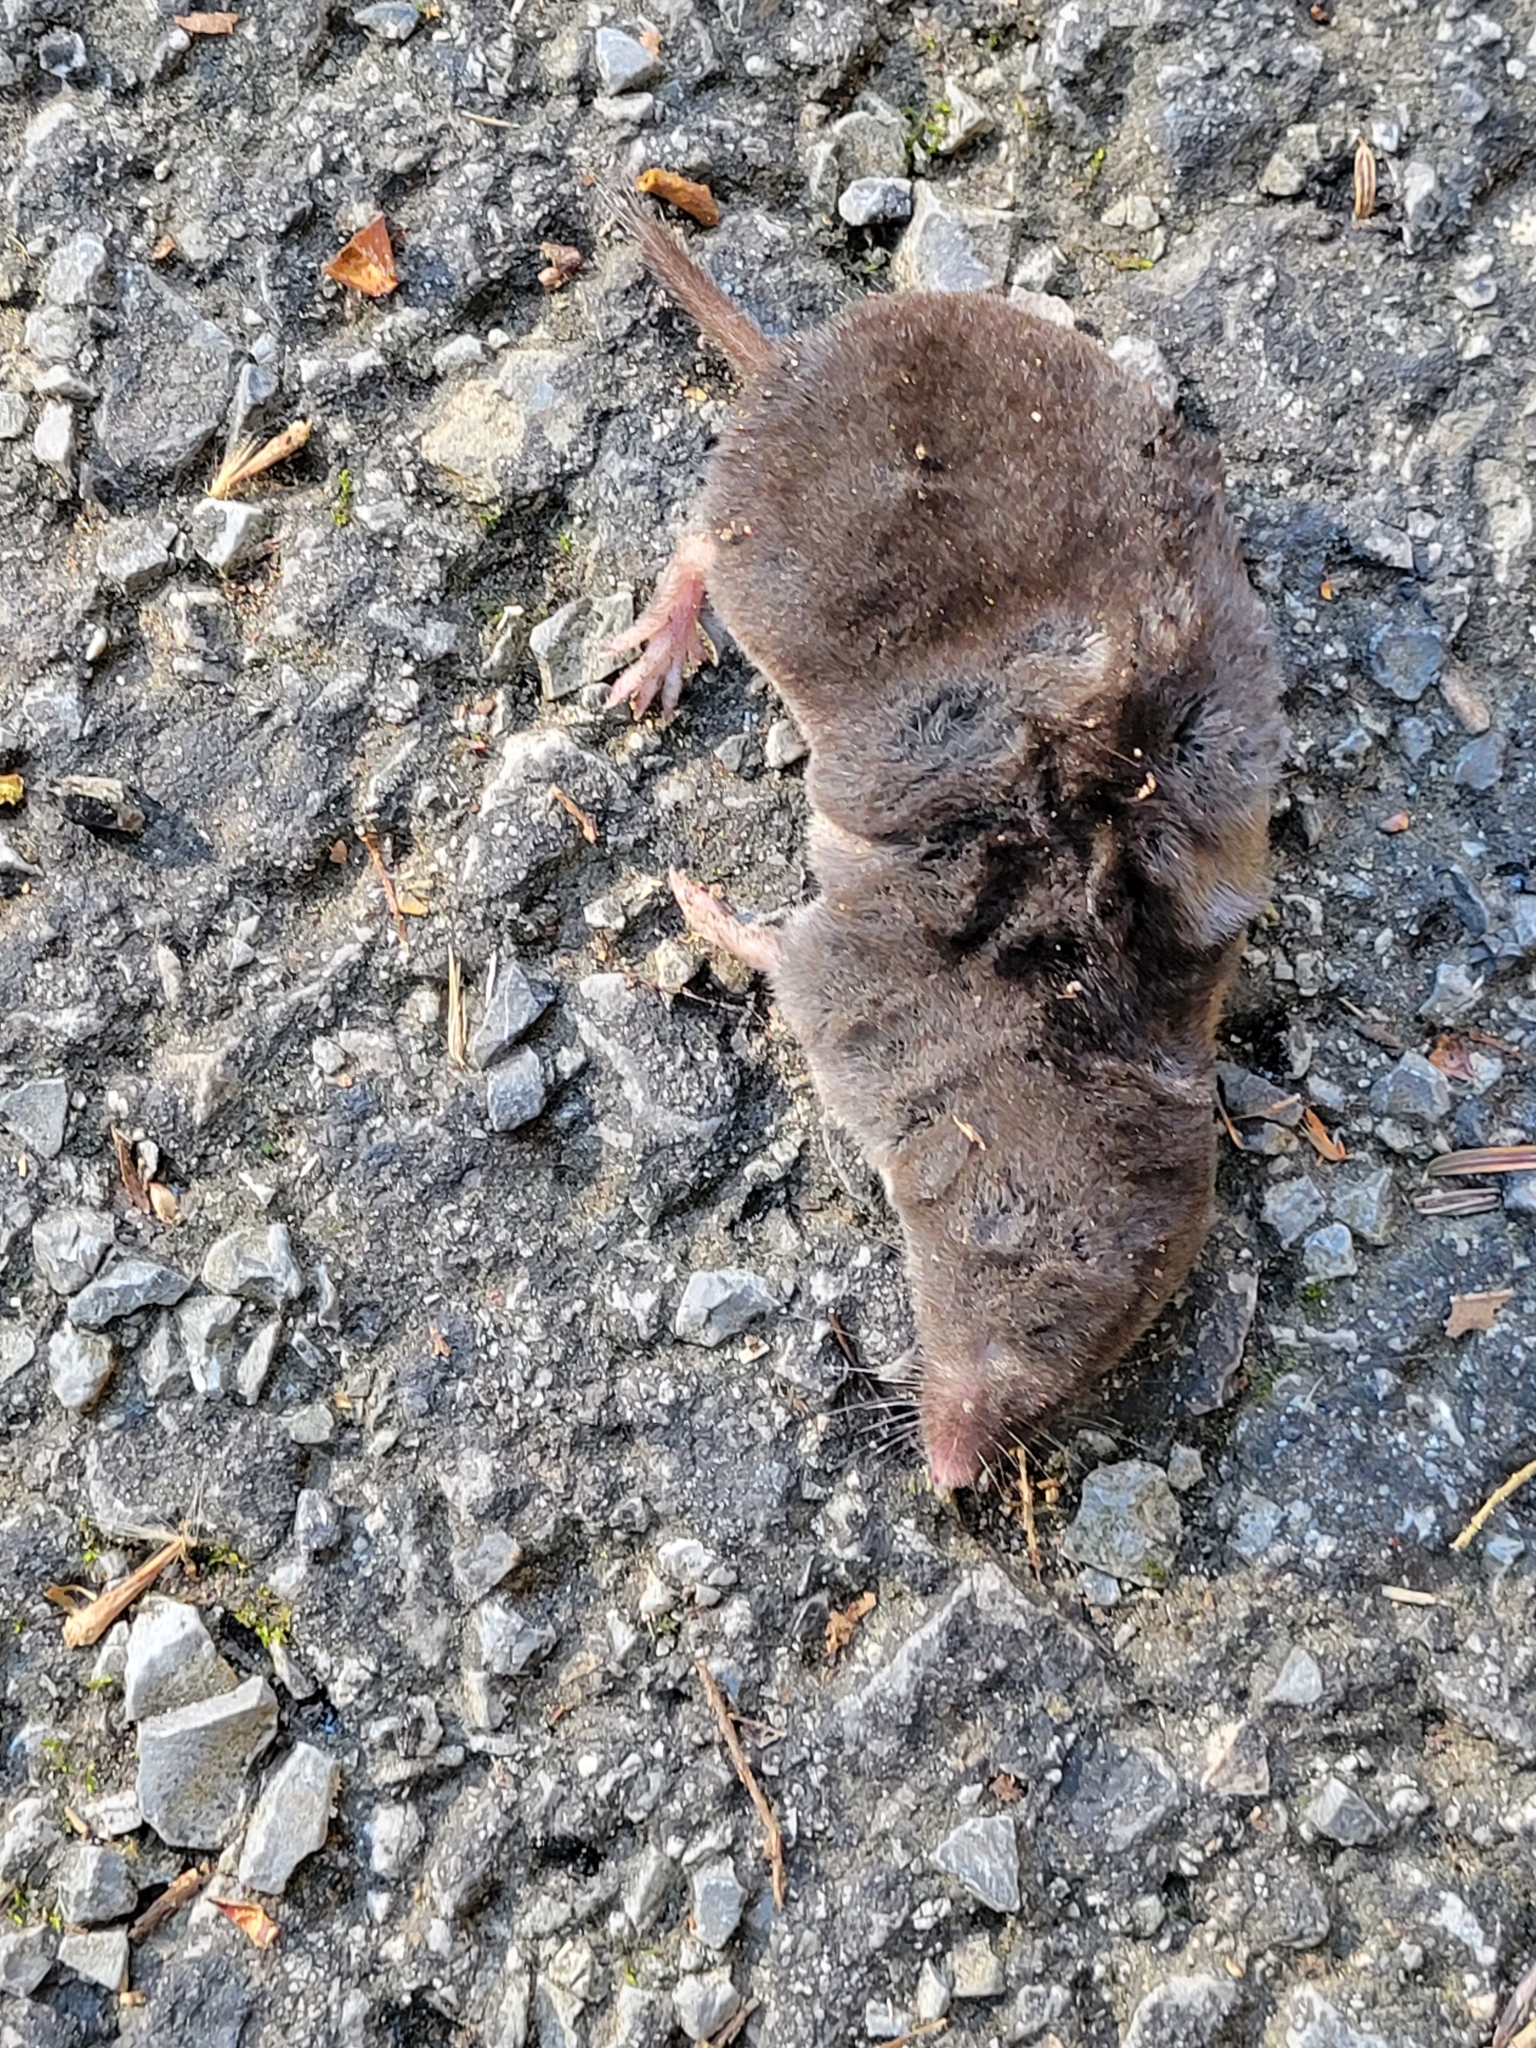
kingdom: Animalia
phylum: Chordata
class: Mammalia
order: Soricomorpha
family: Soricidae
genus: Blarina
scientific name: Blarina brevicauda
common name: Northern short-tailed shrew
